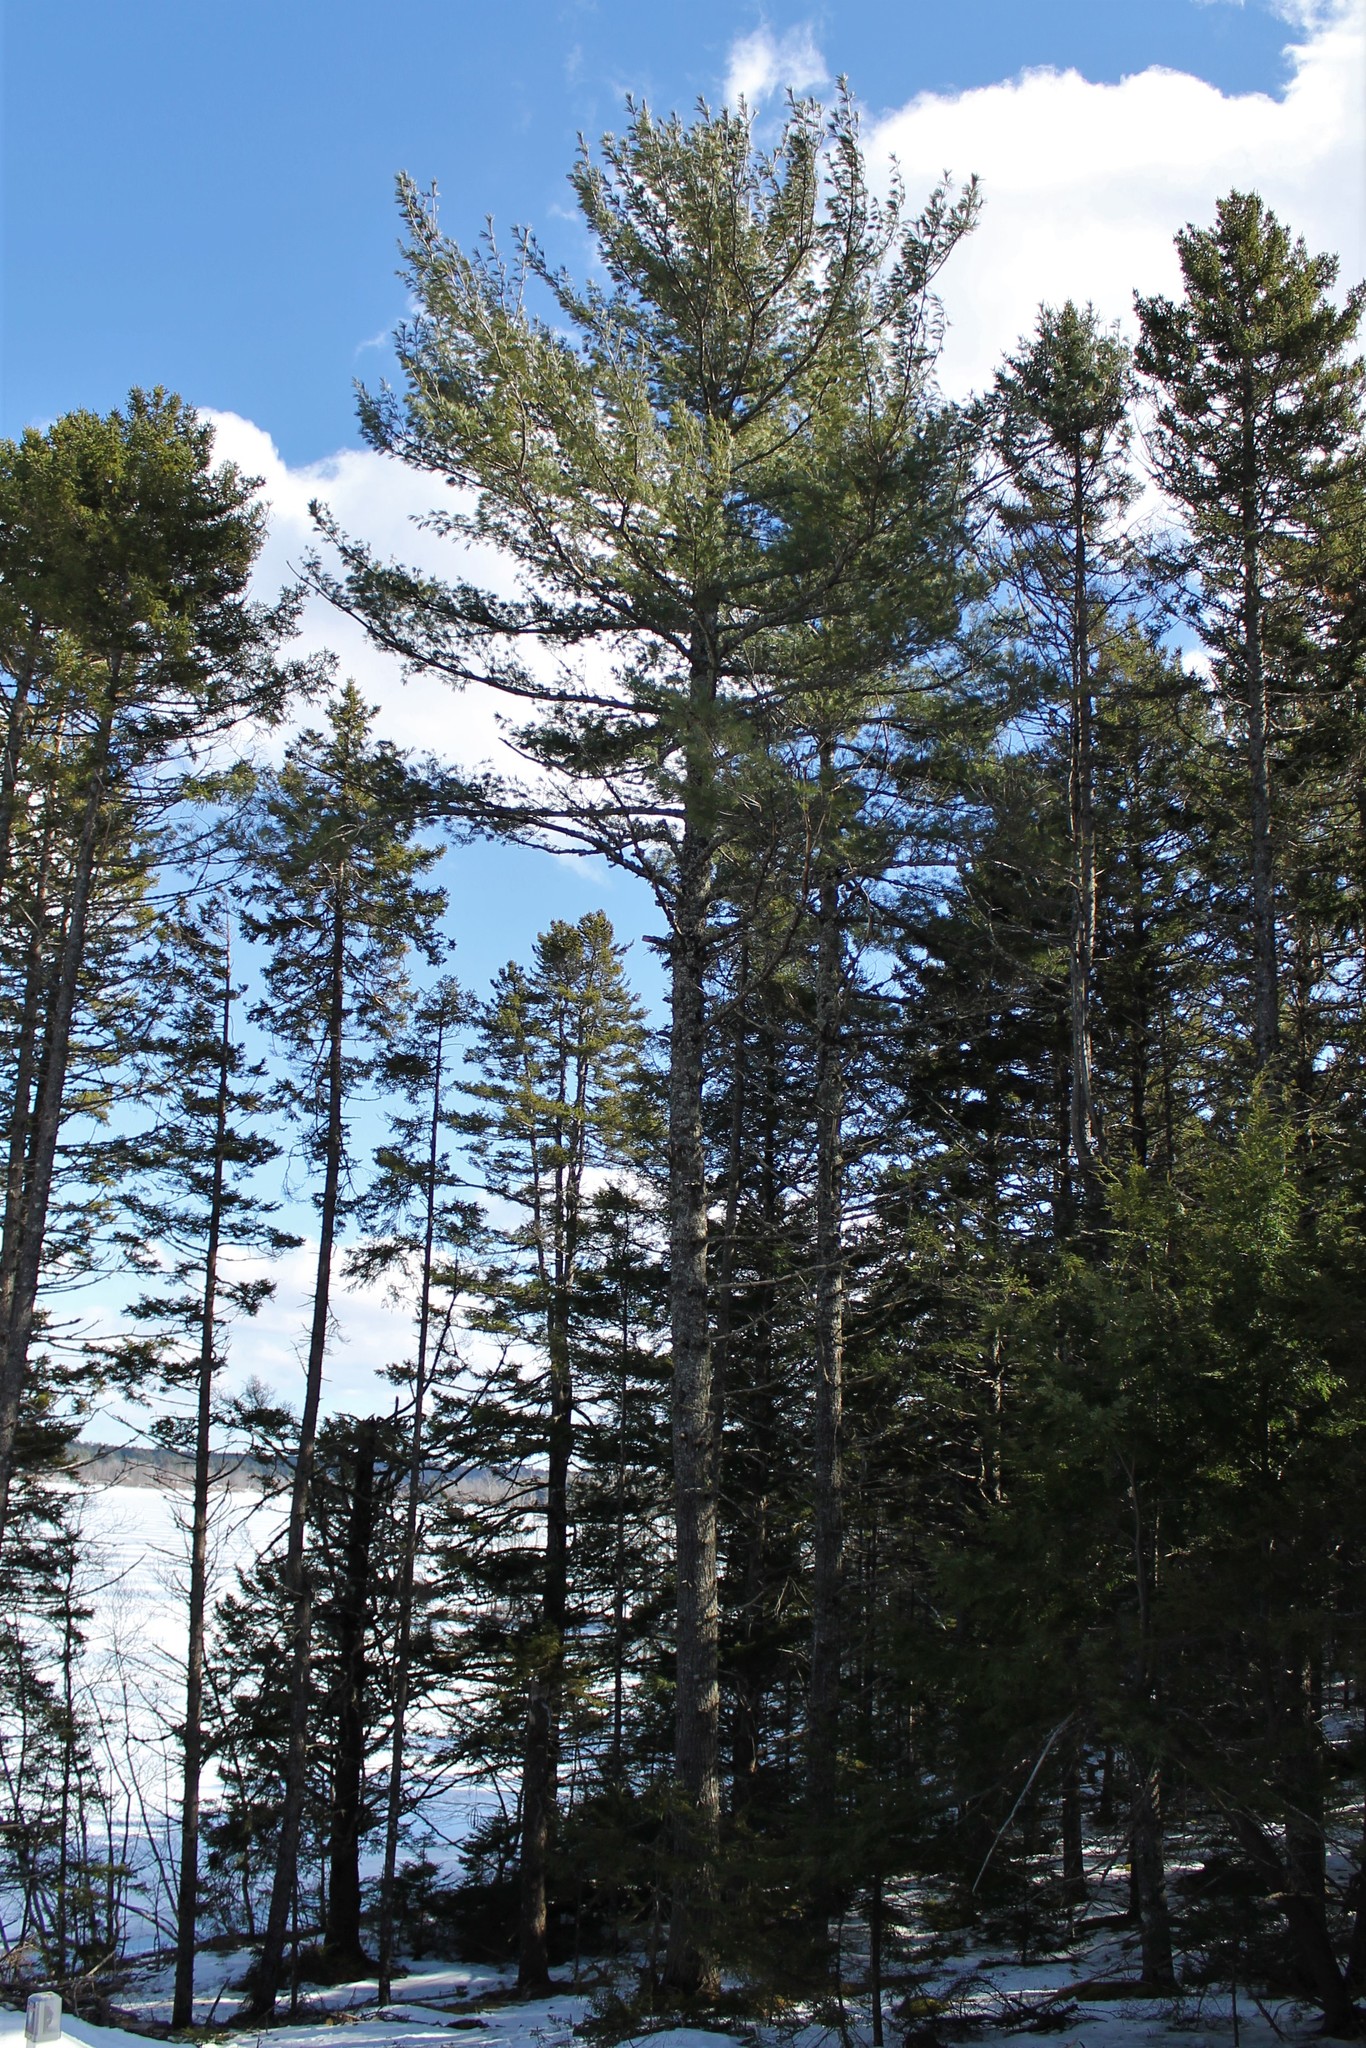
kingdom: Plantae
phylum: Tracheophyta
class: Pinopsida
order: Pinales
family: Pinaceae
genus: Pinus
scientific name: Pinus strobus
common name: Weymouth pine
